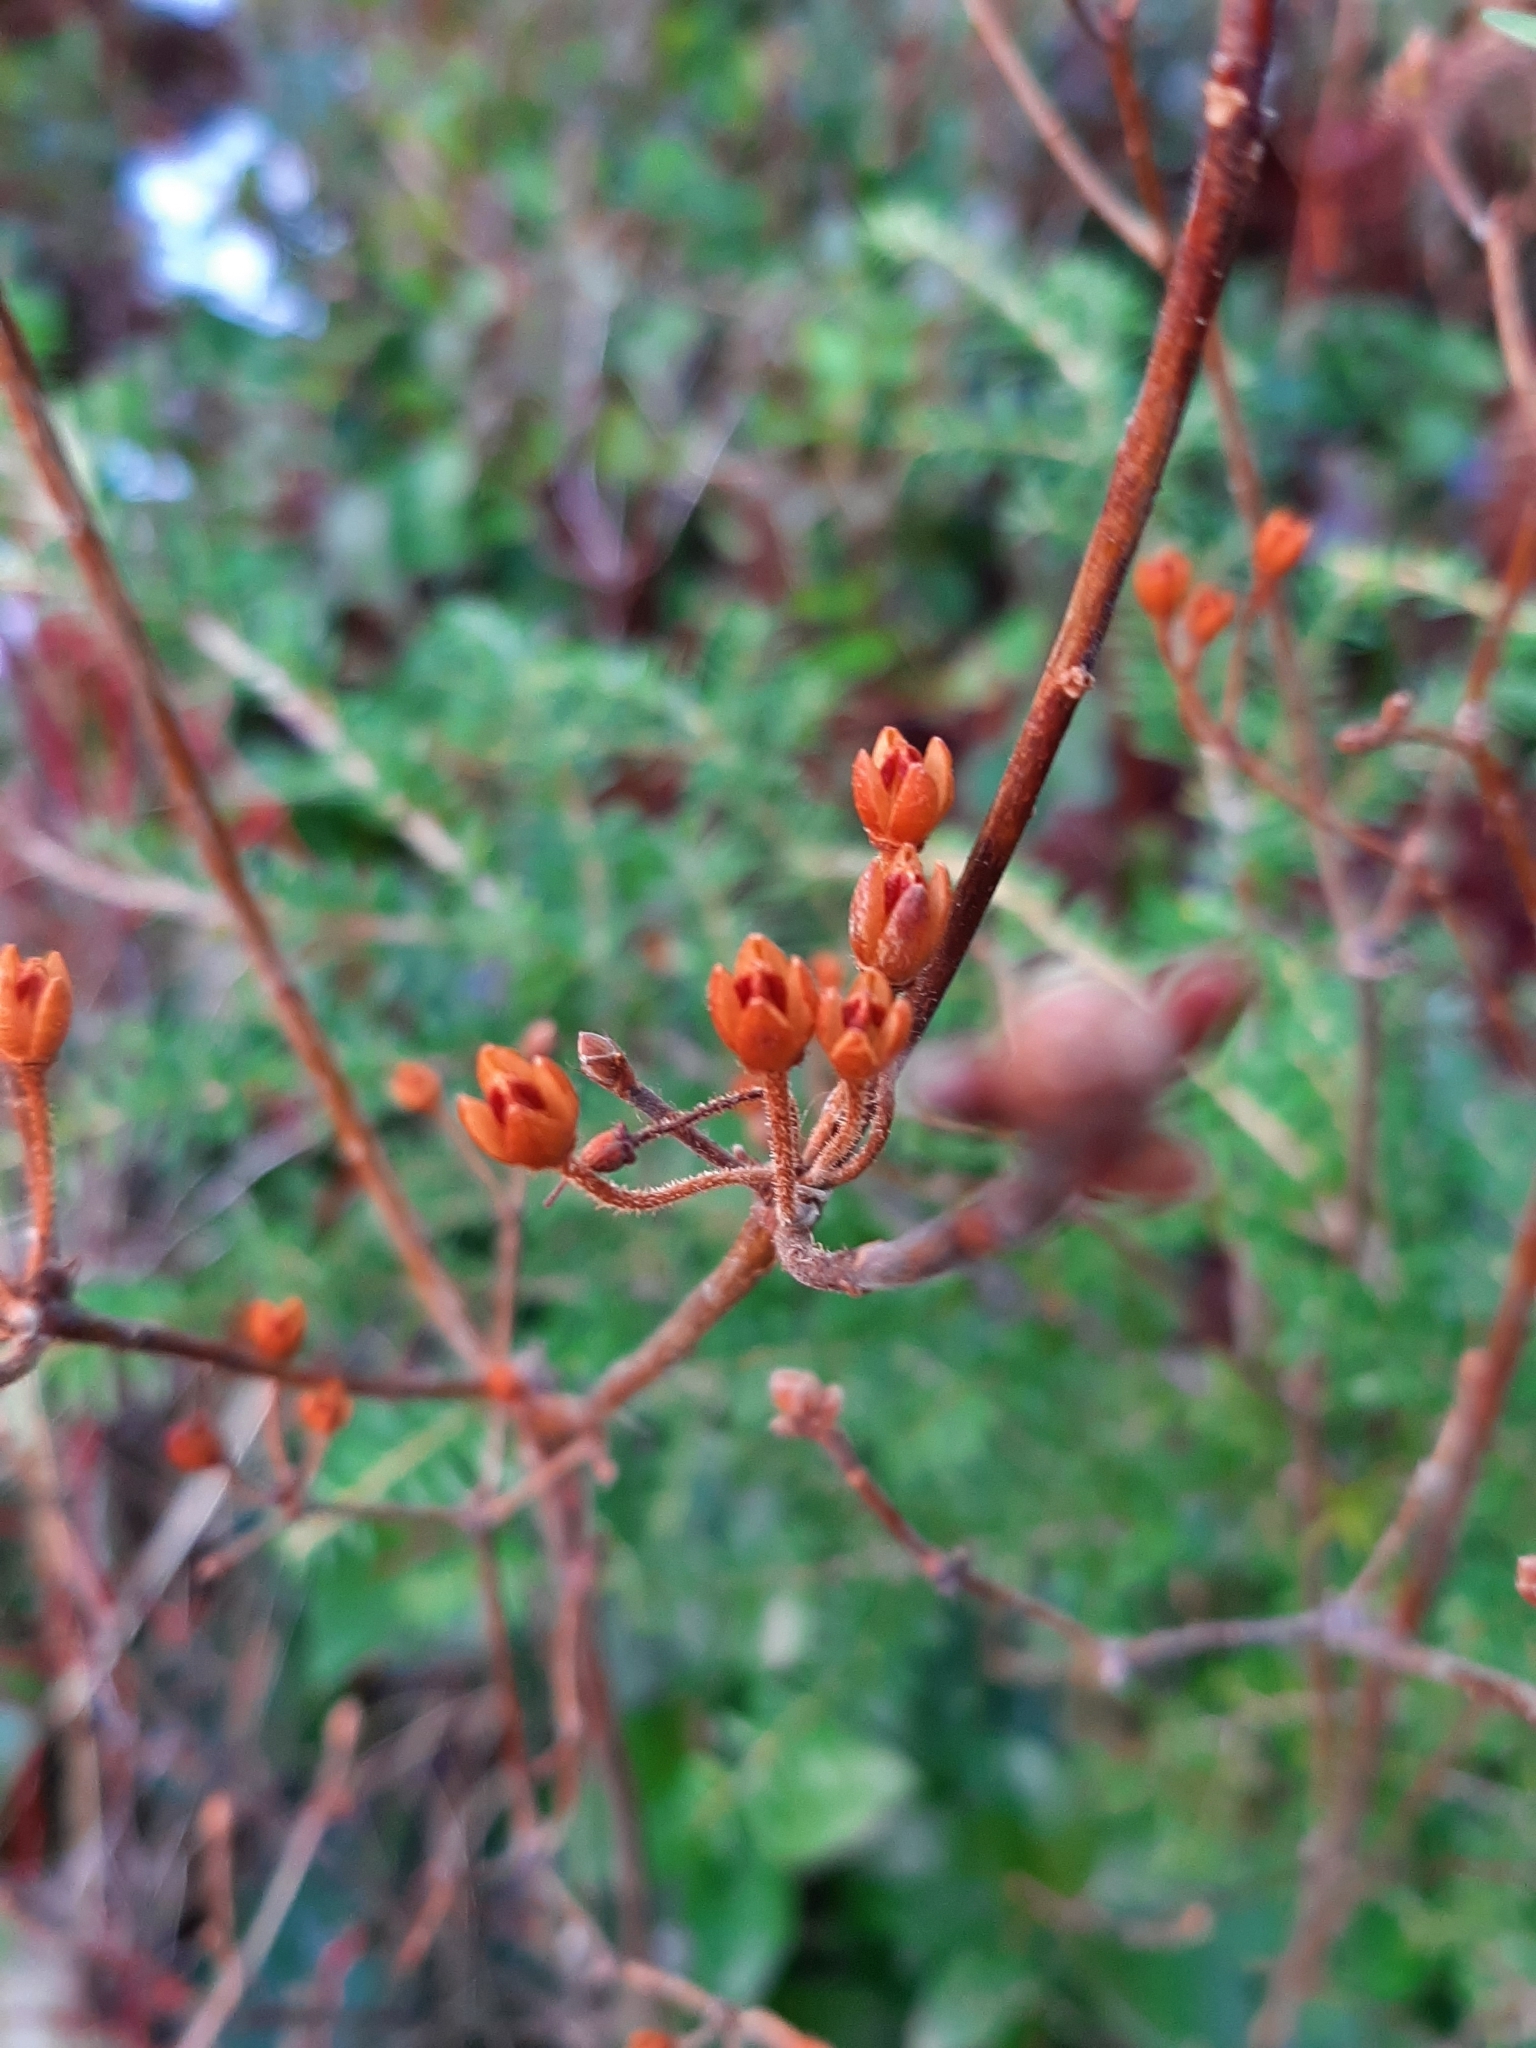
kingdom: Plantae
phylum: Tracheophyta
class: Magnoliopsida
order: Ericales
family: Ericaceae
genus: Rhododendron
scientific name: Rhododendron menziesii
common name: Pacific menziesia
